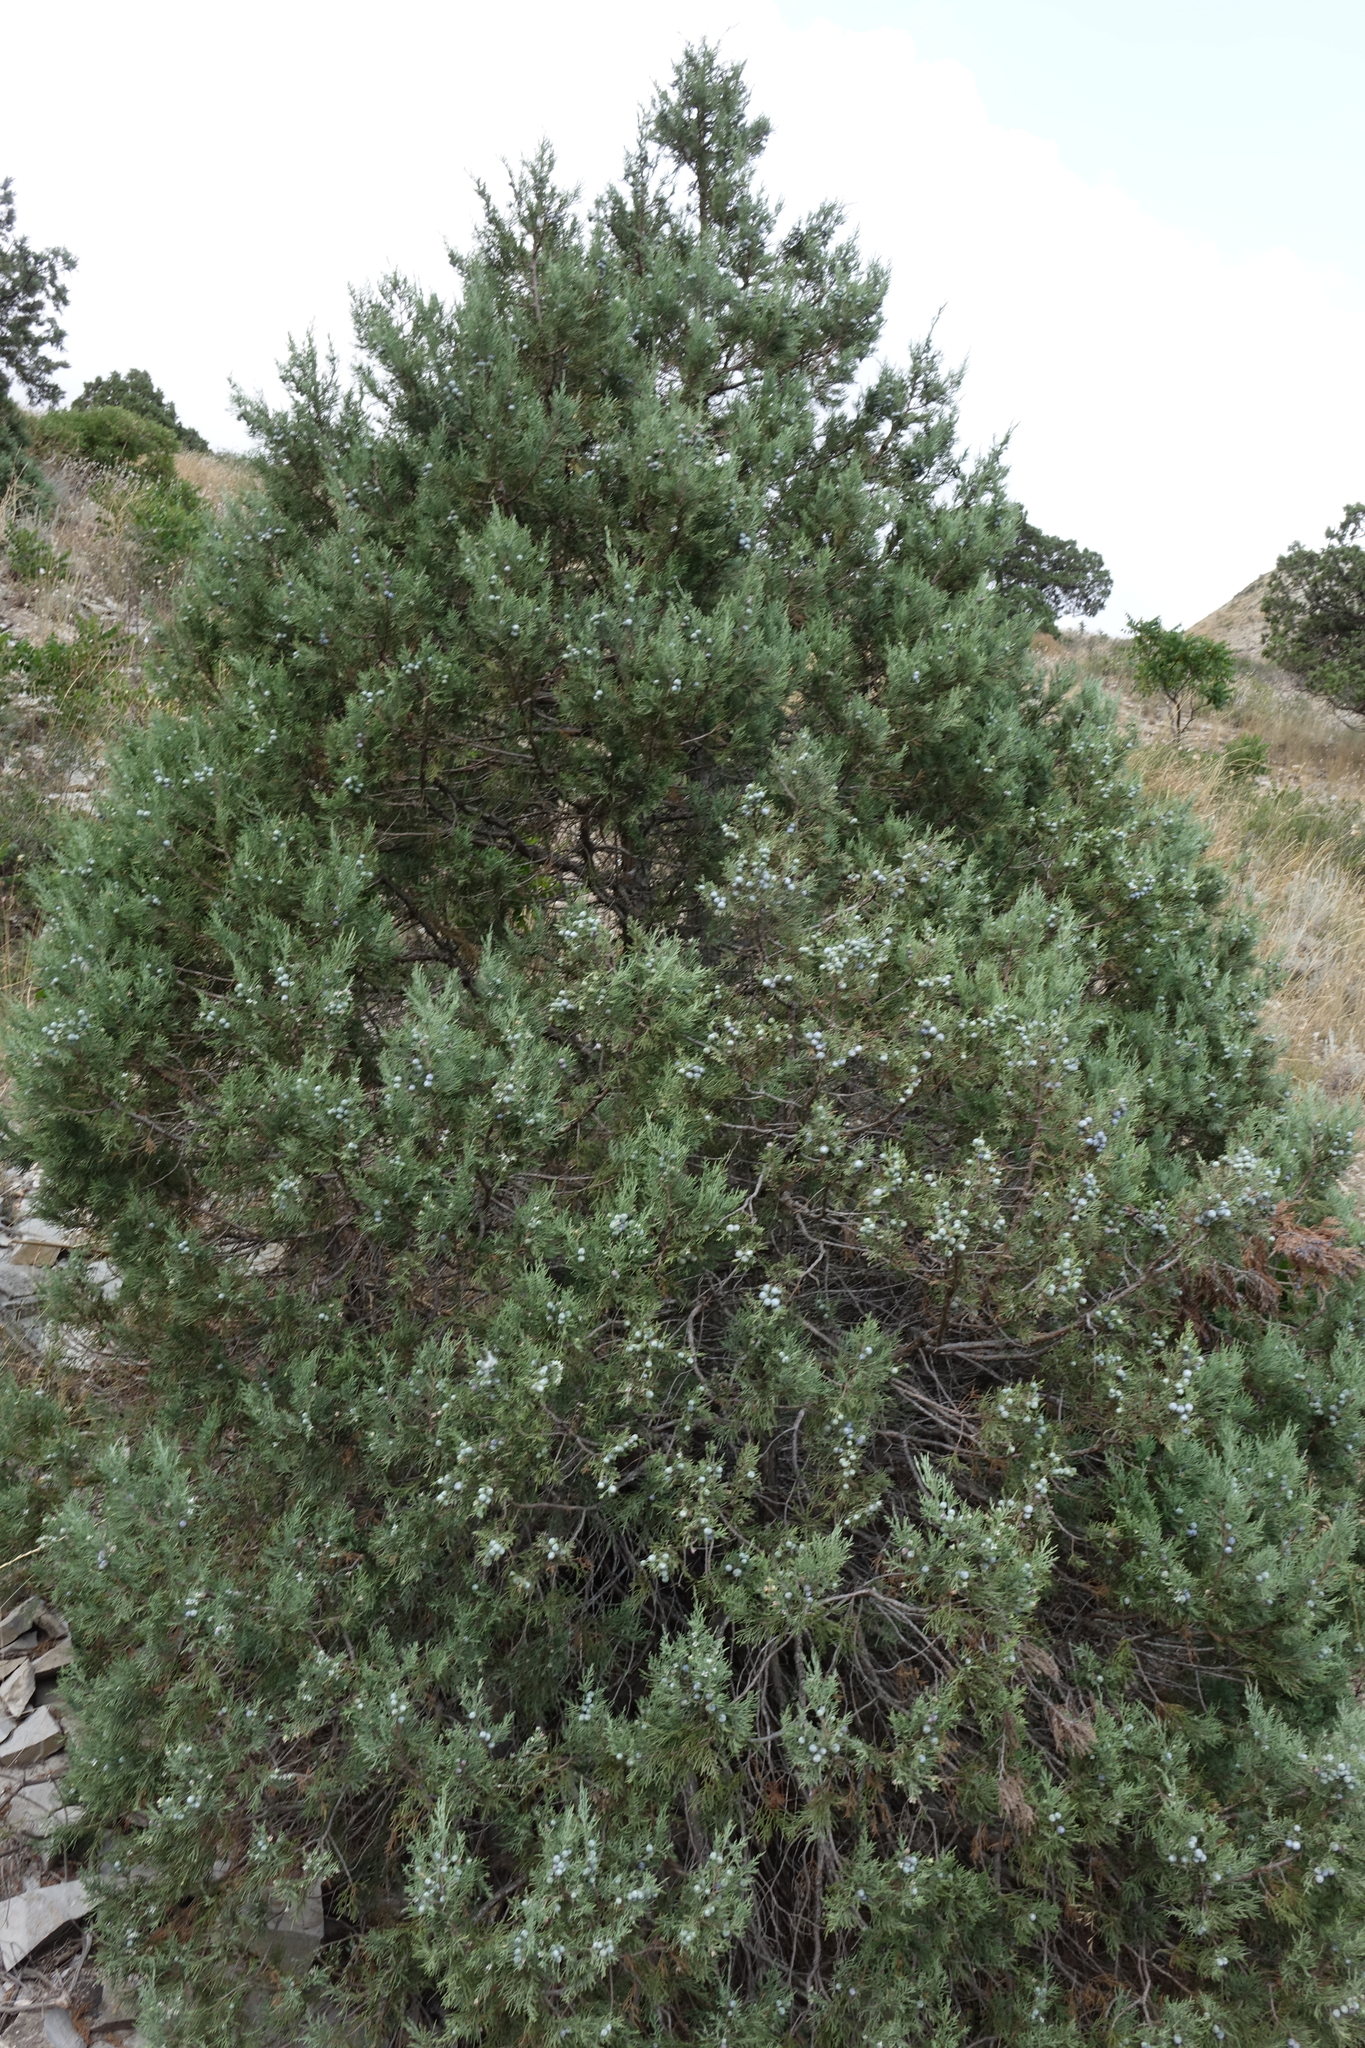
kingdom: Plantae
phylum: Tracheophyta
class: Pinopsida
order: Pinales
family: Cupressaceae
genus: Juniperus
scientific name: Juniperus excelsa
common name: Crimean juniper
